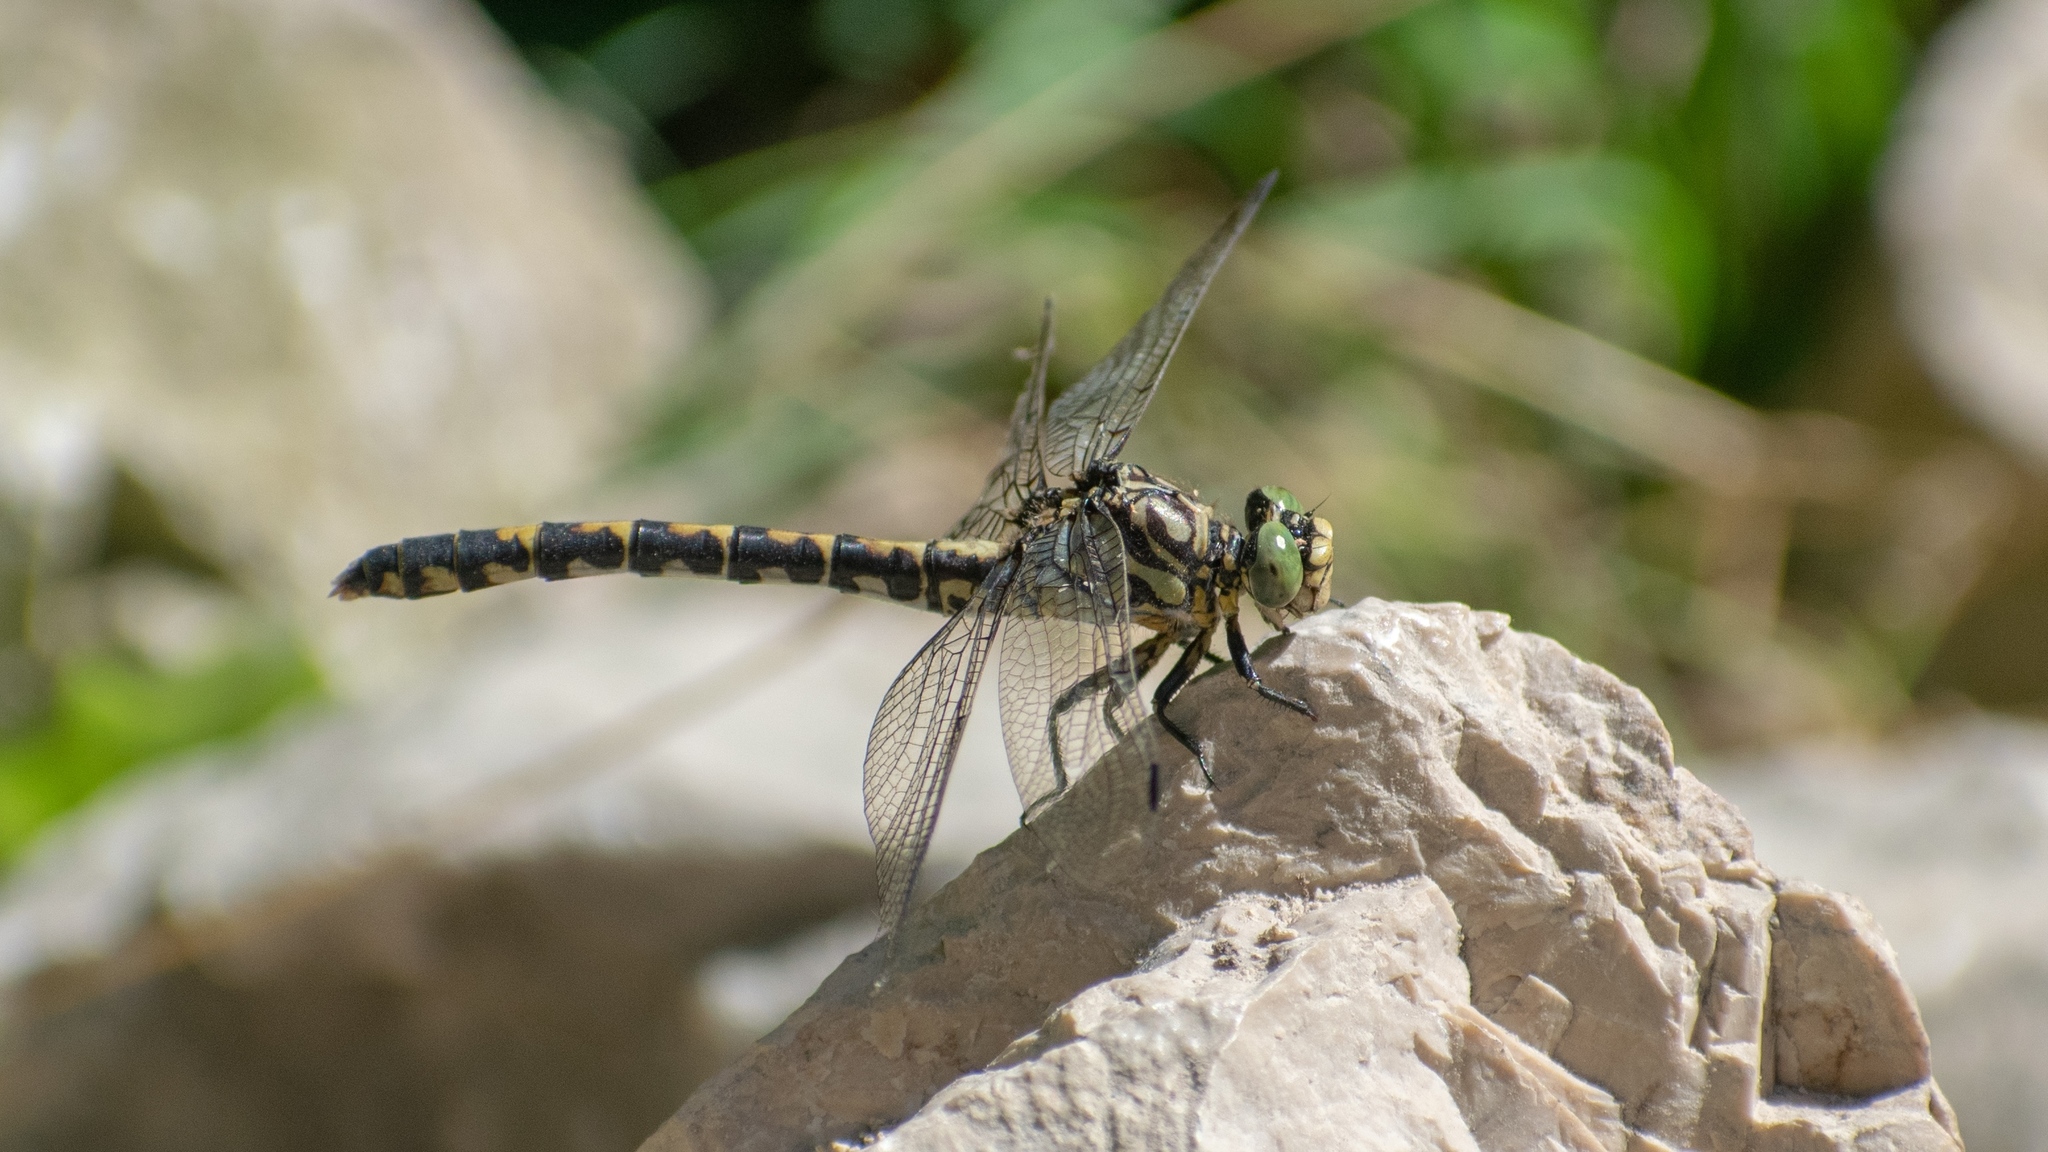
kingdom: Animalia
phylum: Arthropoda
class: Insecta
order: Odonata
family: Gomphidae
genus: Onychogomphus
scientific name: Onychogomphus forcipatus
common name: Small pincertail
